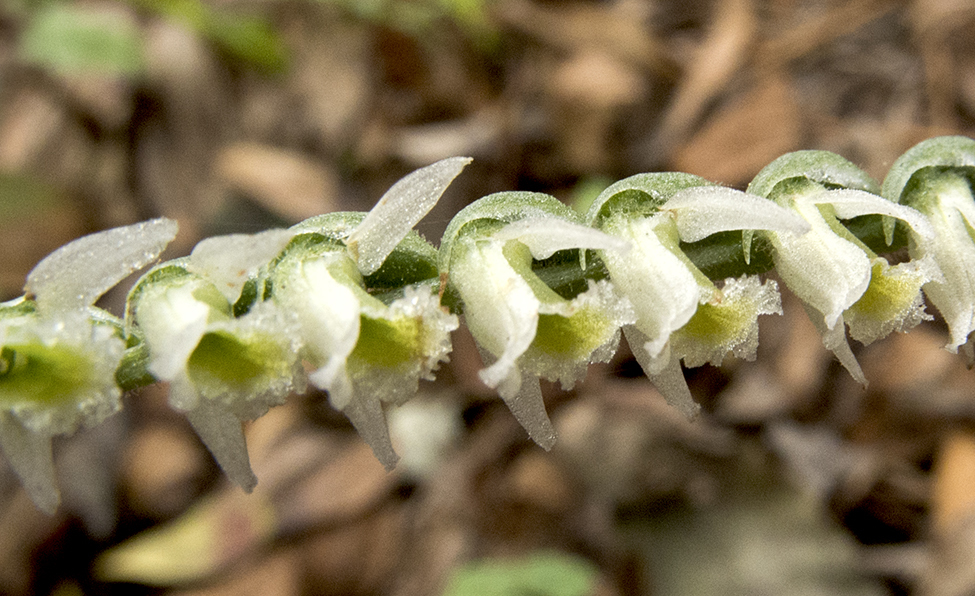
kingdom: Plantae
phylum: Tracheophyta
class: Liliopsida
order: Asparagales
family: Orchidaceae
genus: Spiranthes
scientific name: Spiranthes spiralis
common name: Autumn lady's-tresses
